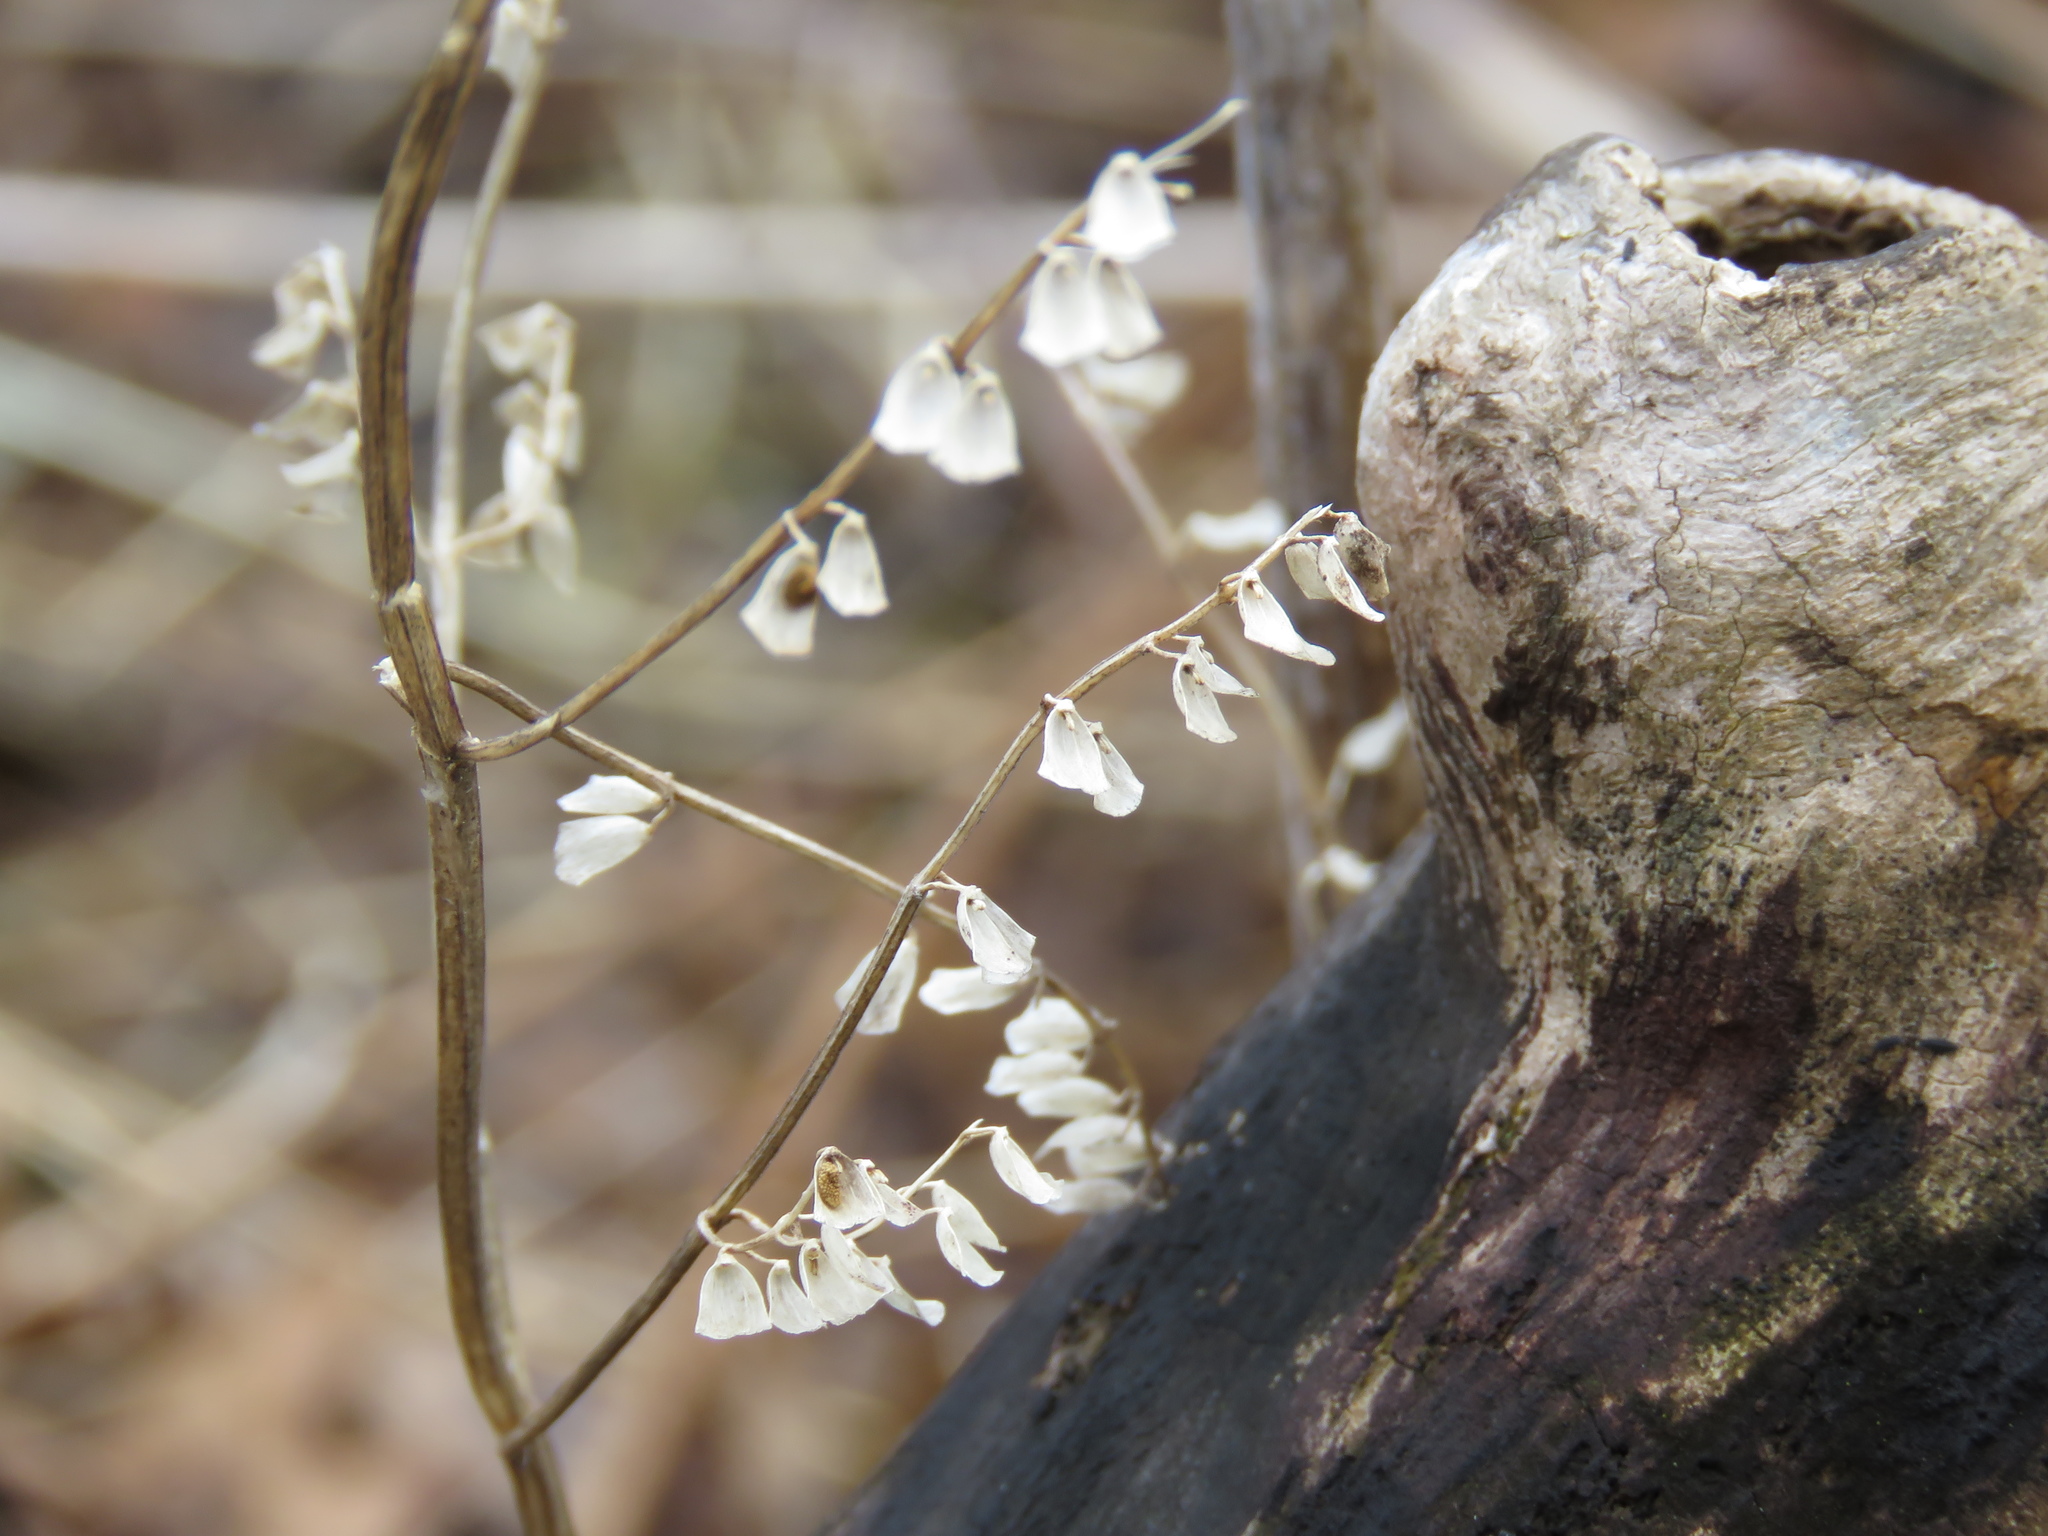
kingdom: Plantae
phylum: Tracheophyta
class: Magnoliopsida
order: Lamiales
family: Lamiaceae
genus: Scutellaria
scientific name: Scutellaria lateriflora
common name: Blue skullcap
